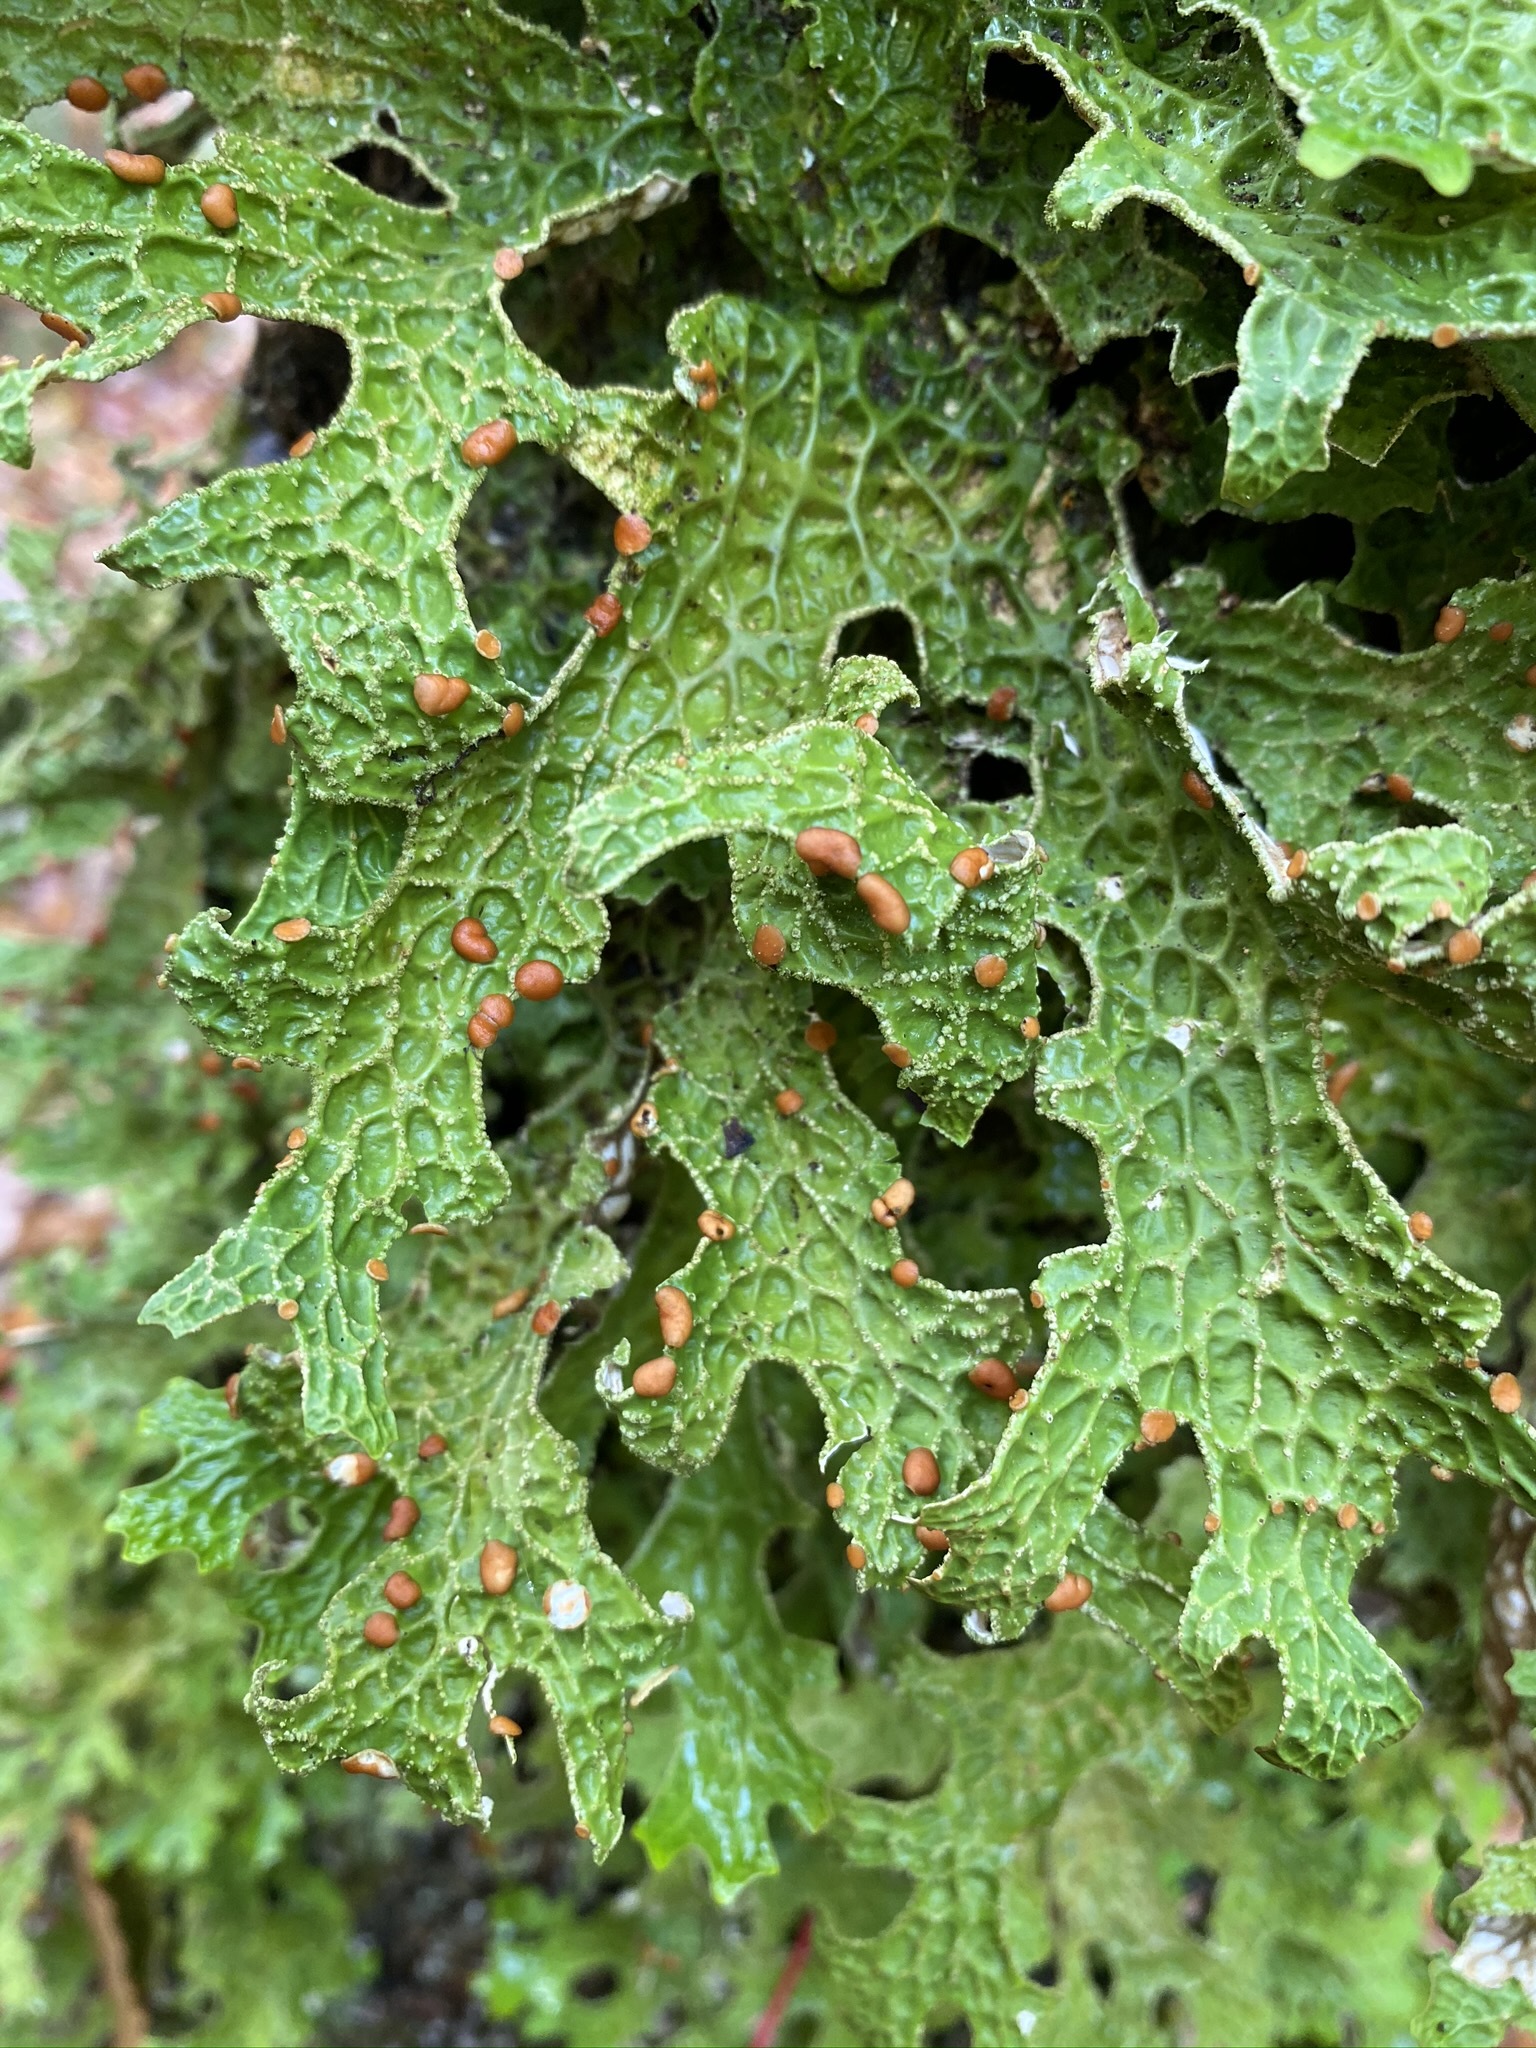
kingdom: Fungi
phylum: Ascomycota
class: Lecanoromycetes
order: Peltigerales
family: Lobariaceae
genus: Lobaria
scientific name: Lobaria pulmonaria
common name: Lungwort
